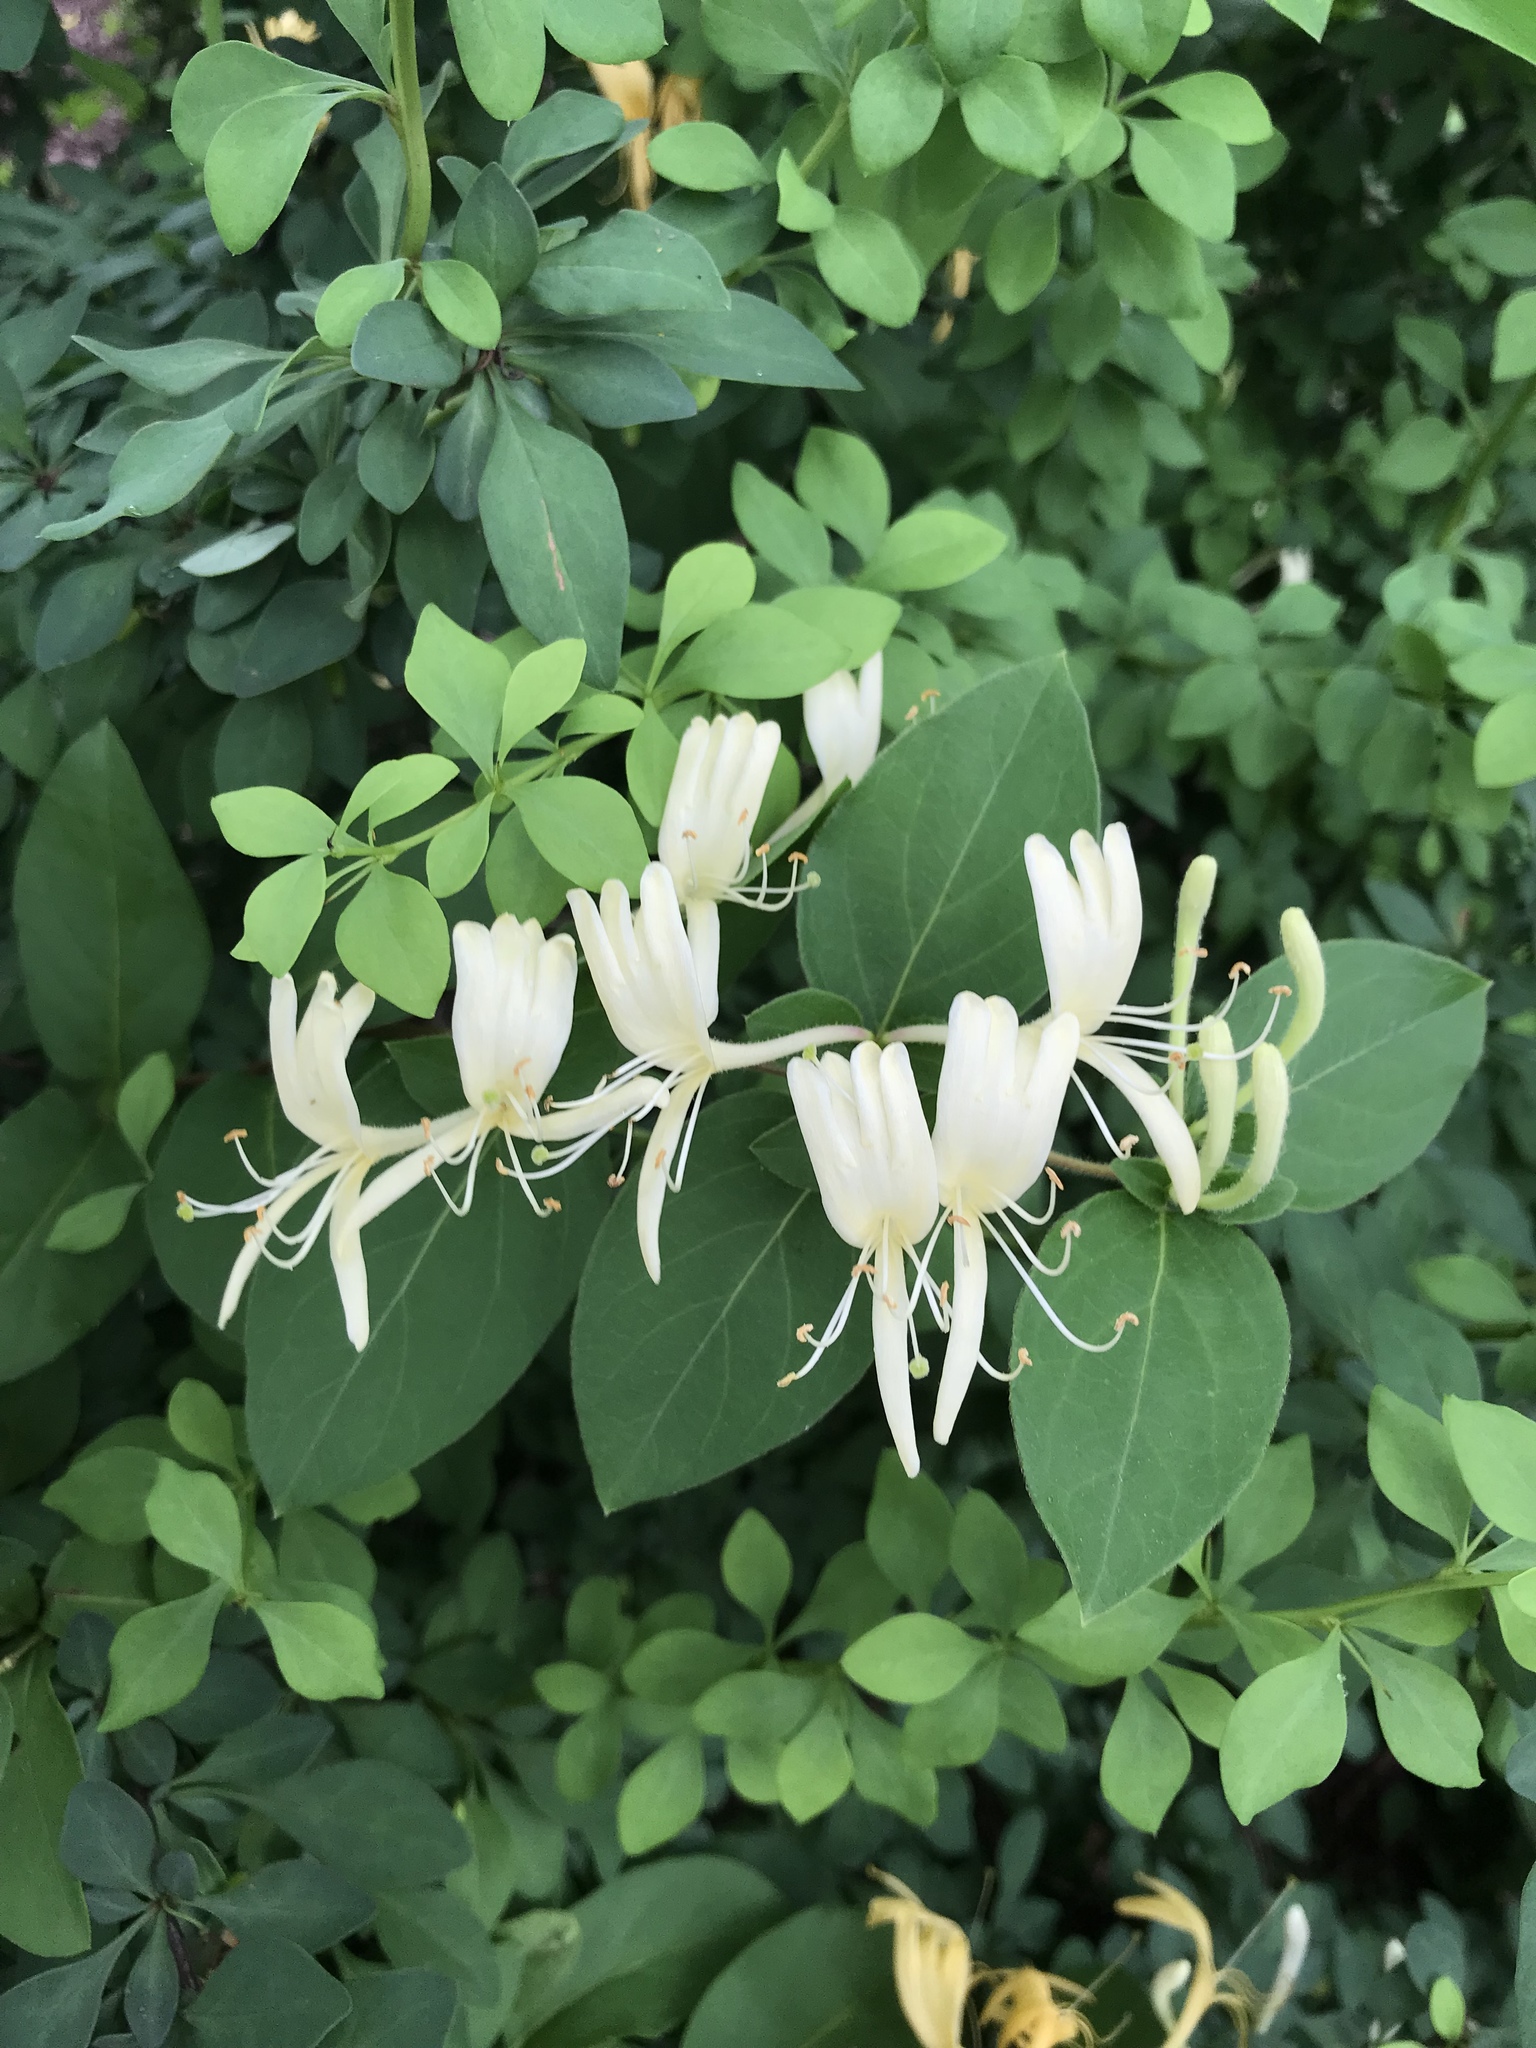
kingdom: Plantae
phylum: Tracheophyta
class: Magnoliopsida
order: Dipsacales
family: Caprifoliaceae
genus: Lonicera
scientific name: Lonicera japonica
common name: Japanese honeysuckle
